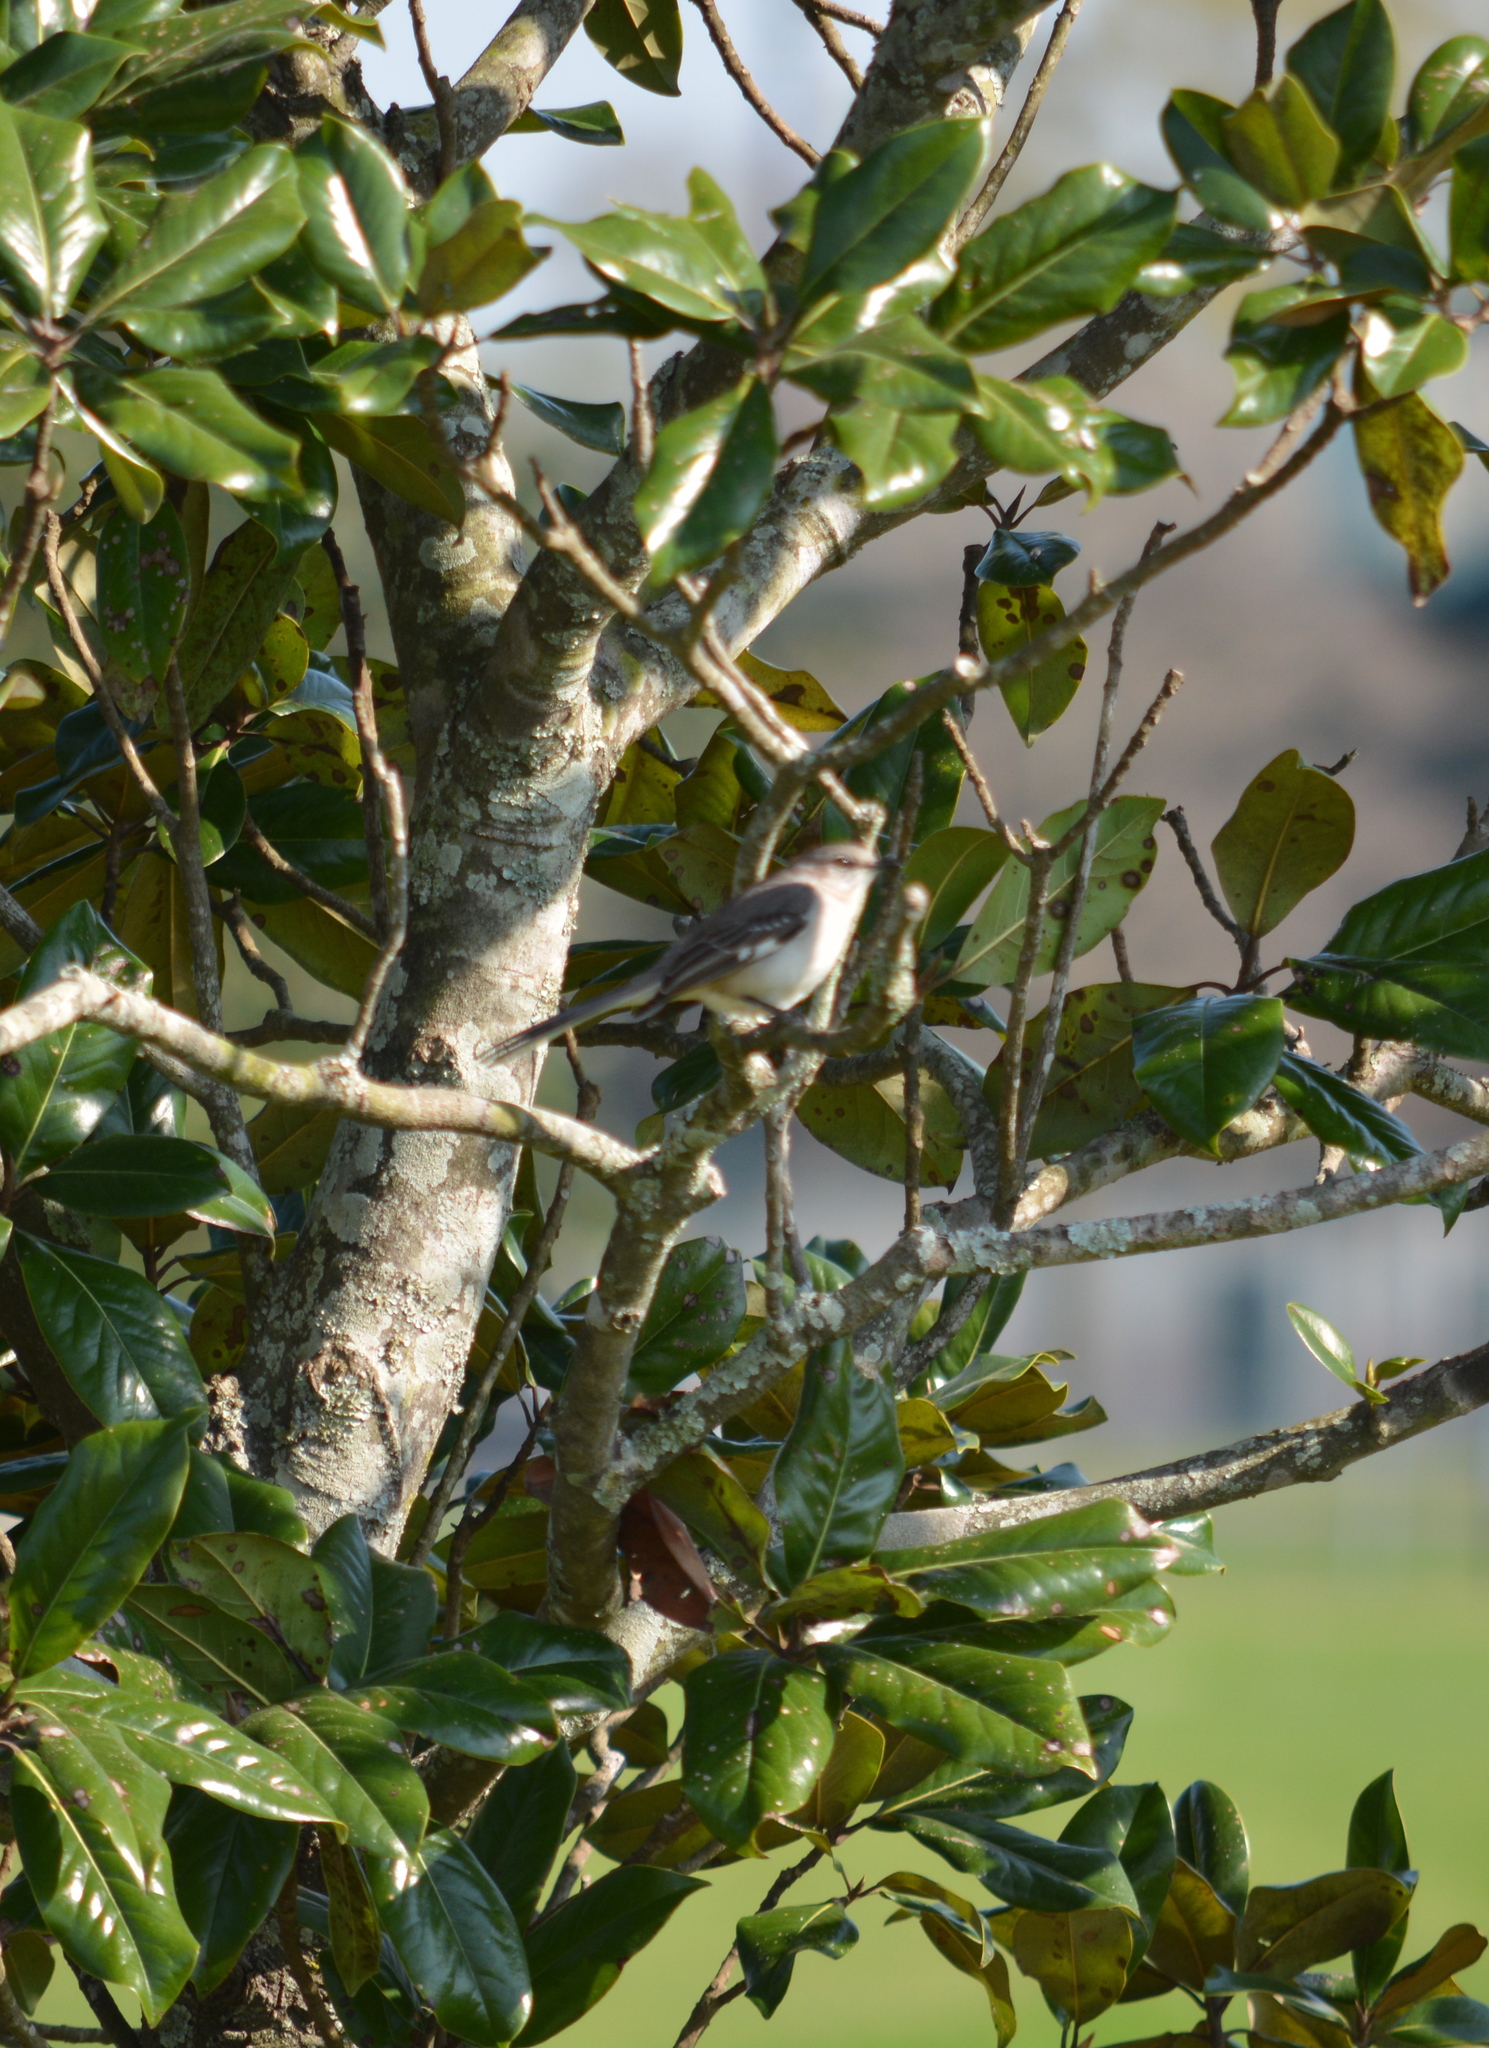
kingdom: Animalia
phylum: Chordata
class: Aves
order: Passeriformes
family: Mimidae
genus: Mimus
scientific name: Mimus polyglottos
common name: Northern mockingbird
